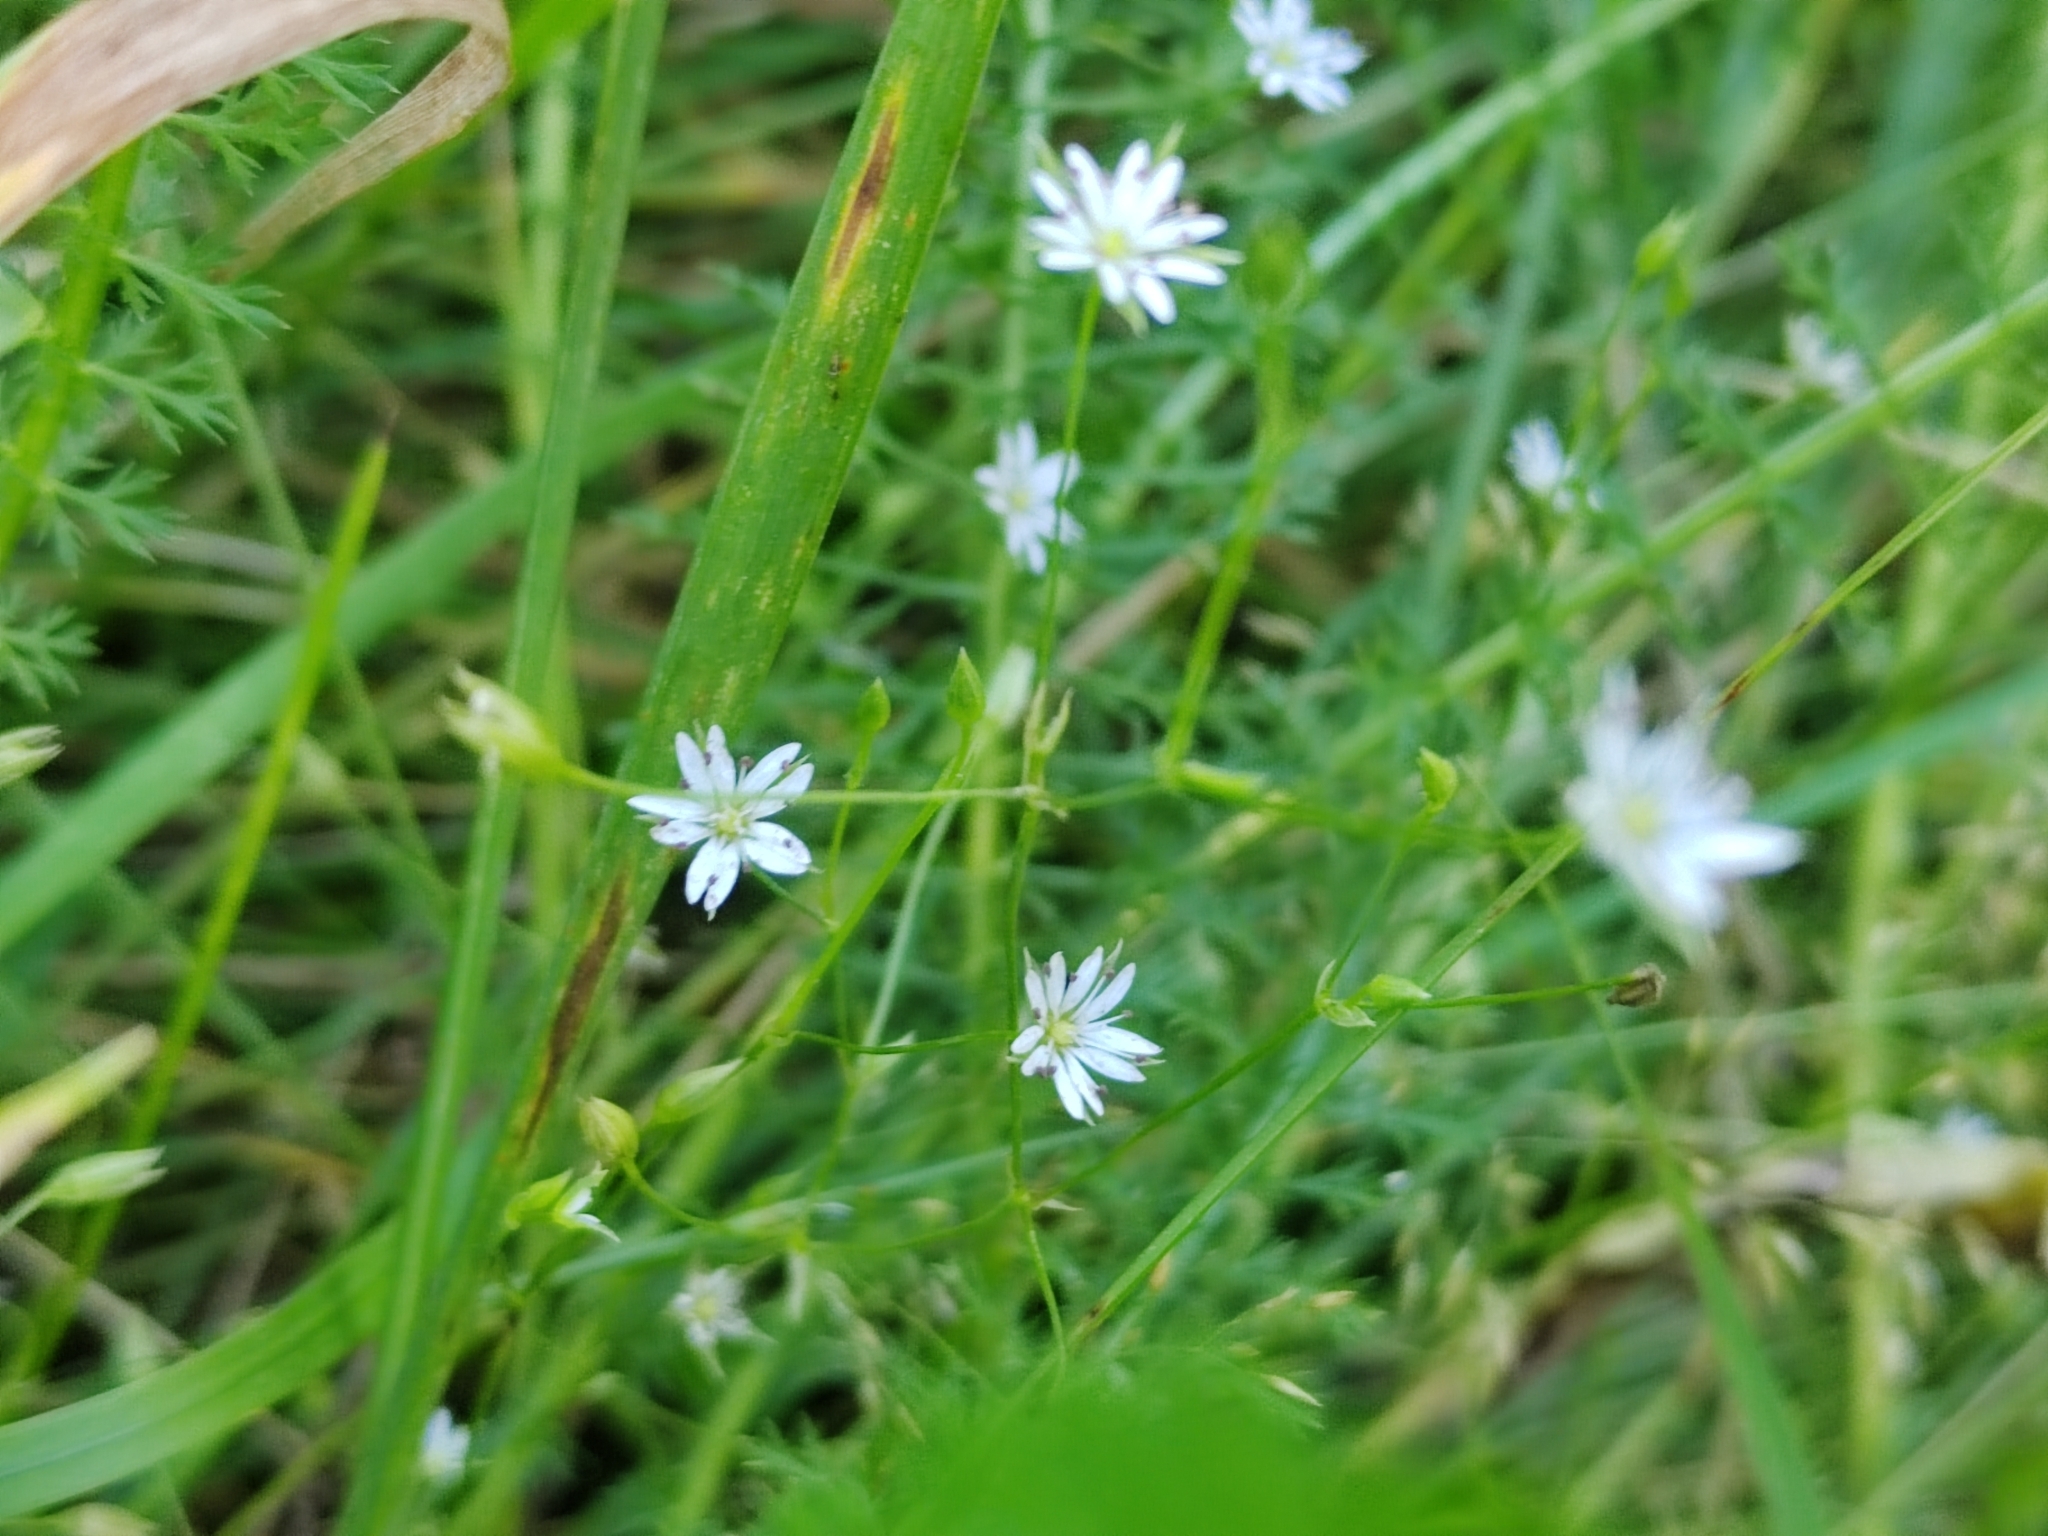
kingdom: Plantae
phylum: Tracheophyta
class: Magnoliopsida
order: Caryophyllales
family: Caryophyllaceae
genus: Stellaria
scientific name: Stellaria graminea
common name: Grass-like starwort
